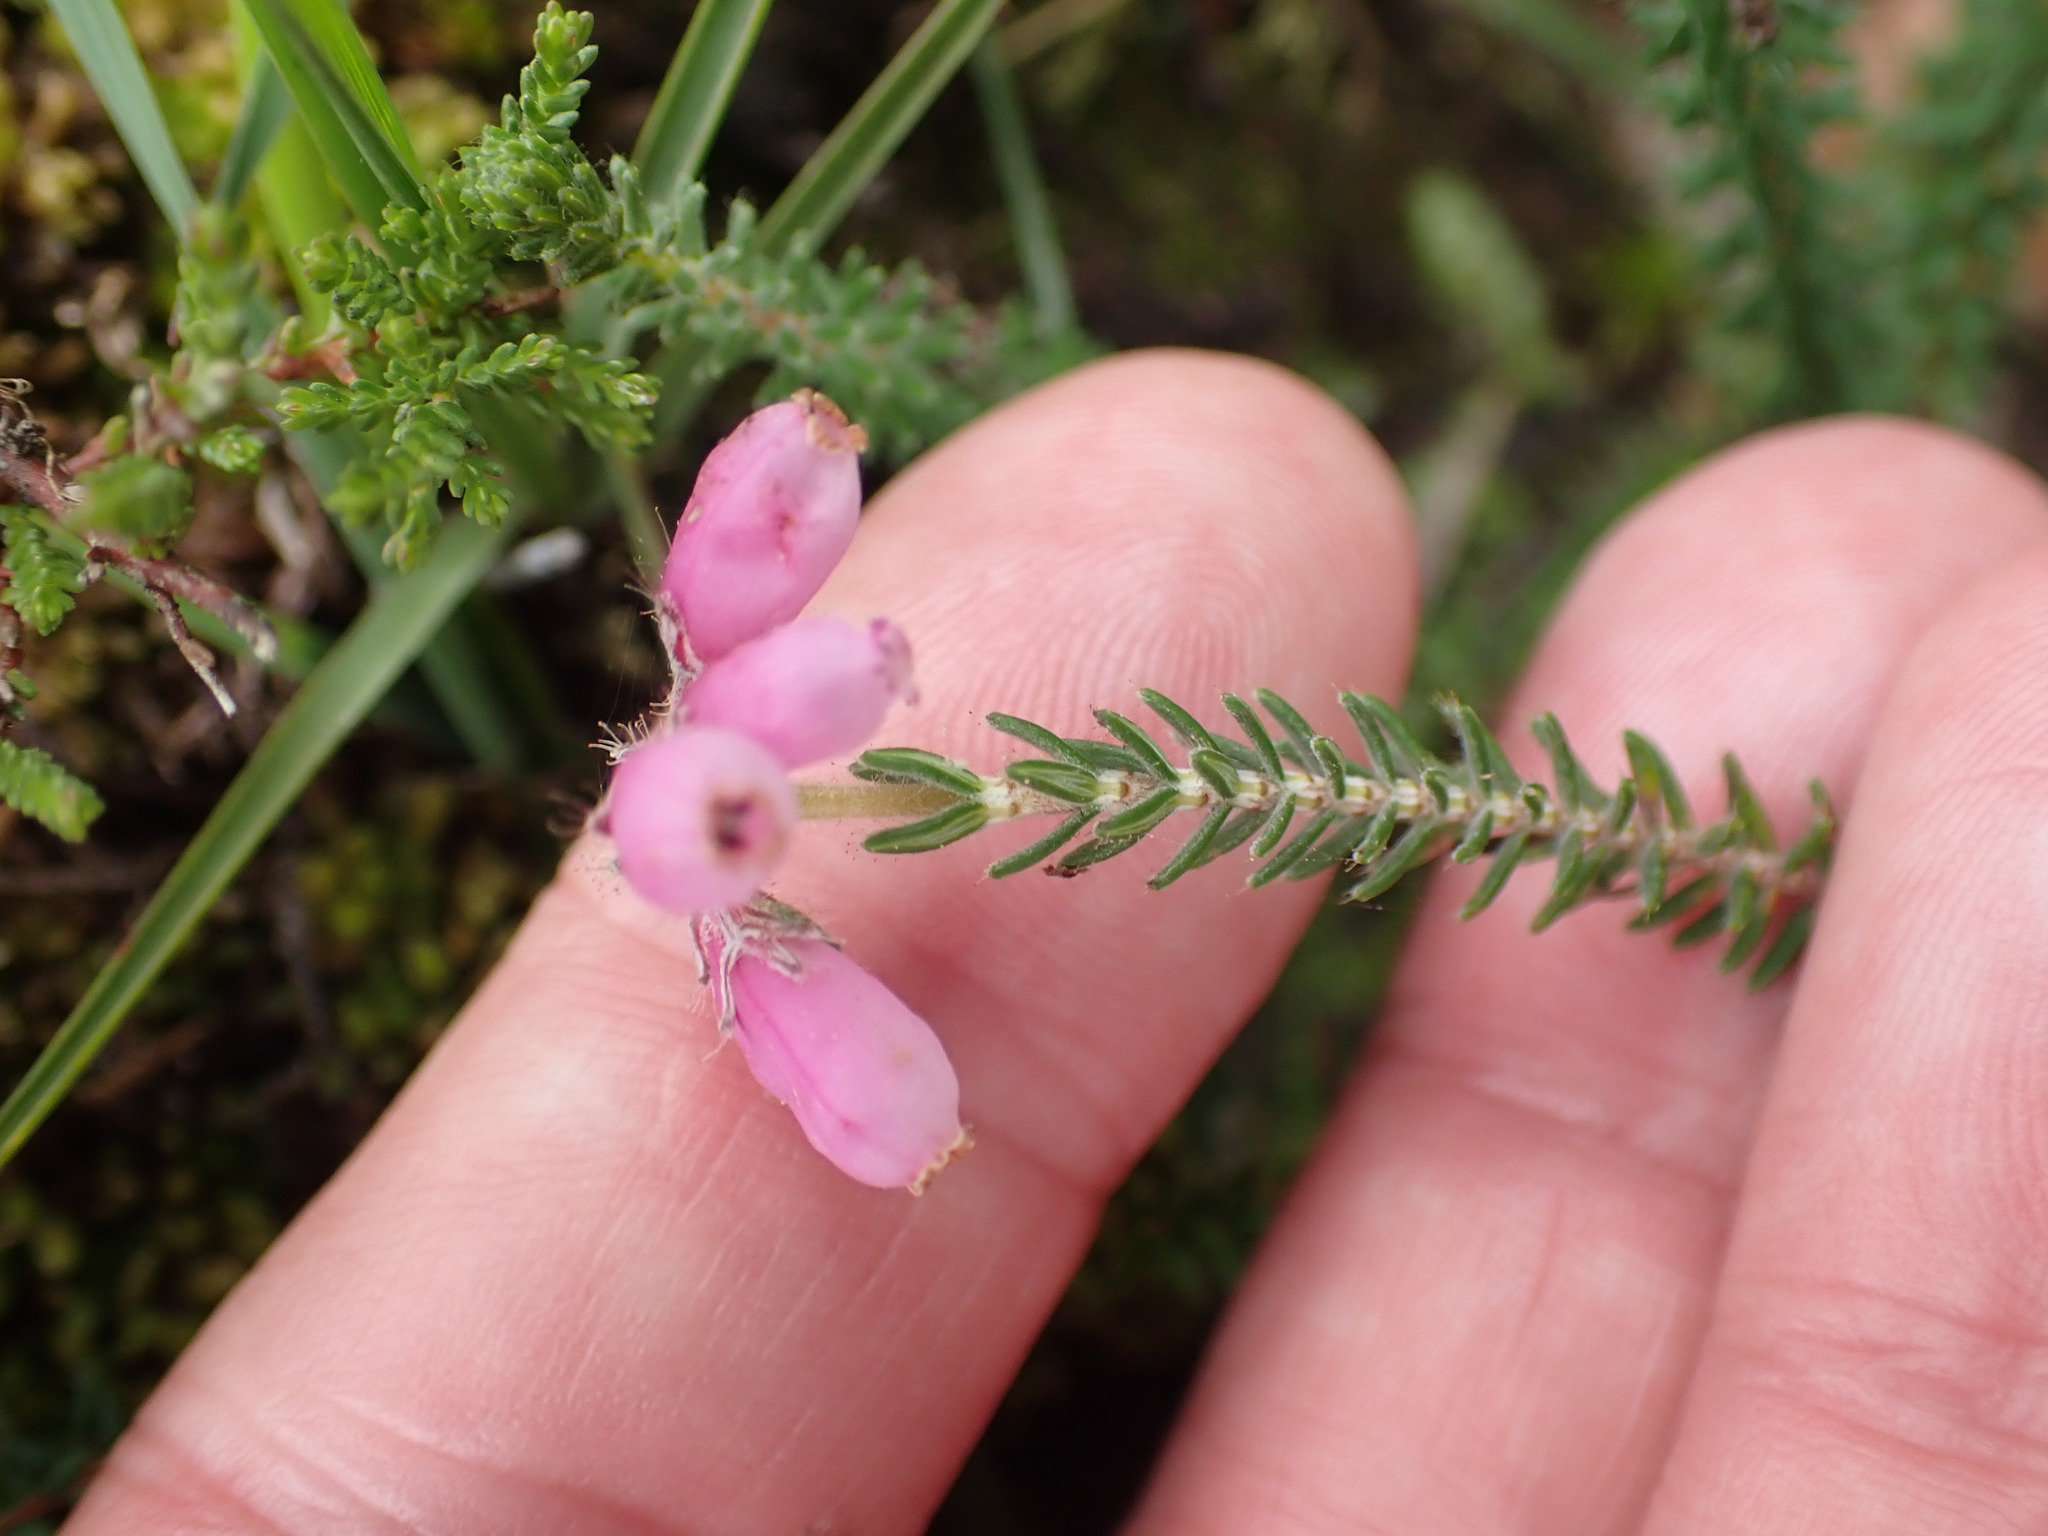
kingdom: Plantae
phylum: Tracheophyta
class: Magnoliopsida
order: Ericales
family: Ericaceae
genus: Erica
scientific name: Erica tetralix
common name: Cross-leaved heath
